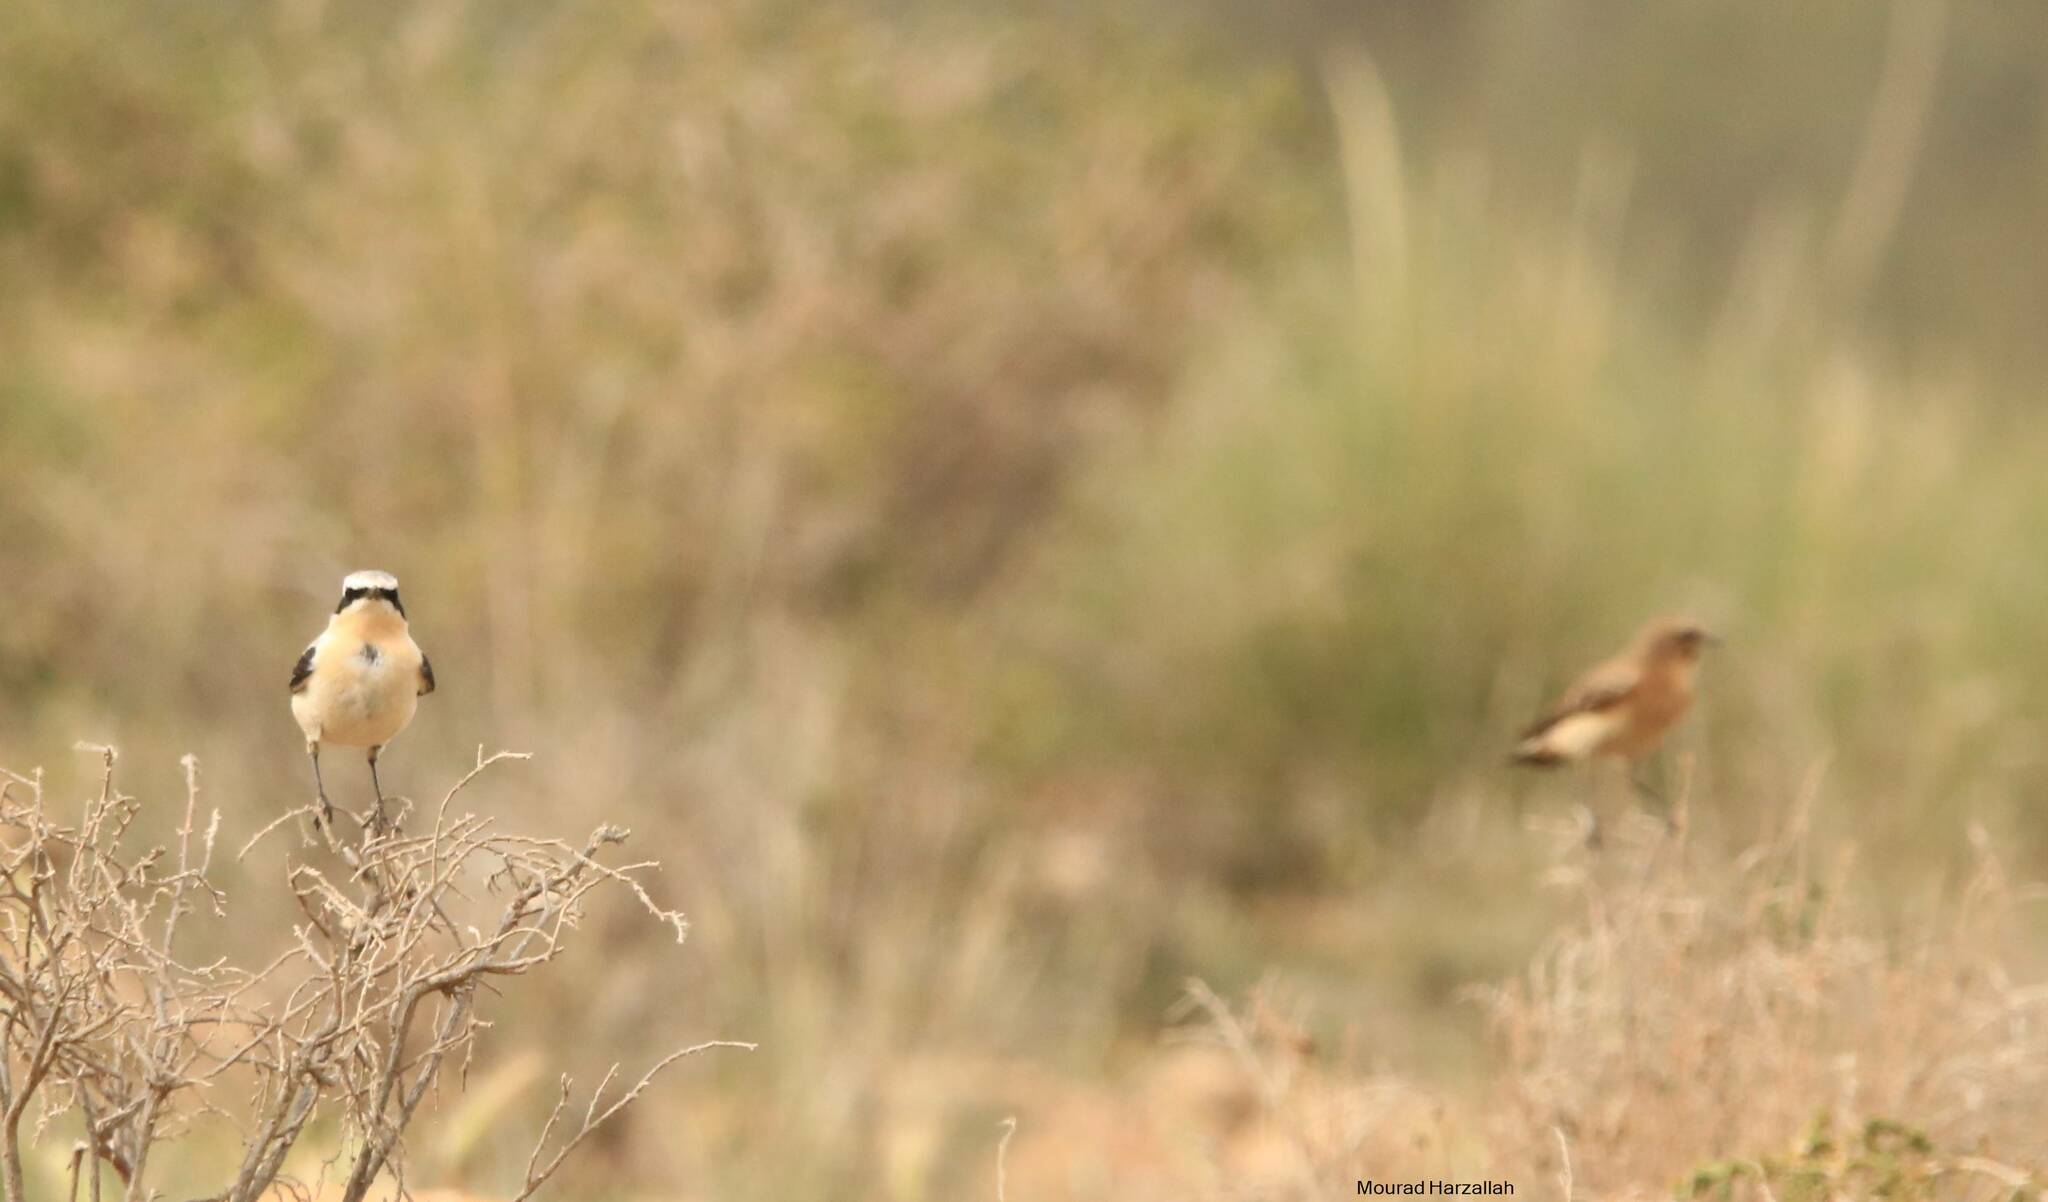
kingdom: Animalia
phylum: Chordata
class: Aves
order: Passeriformes
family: Muscicapidae
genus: Oenanthe
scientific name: Oenanthe oenanthe
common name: Northern wheatear
